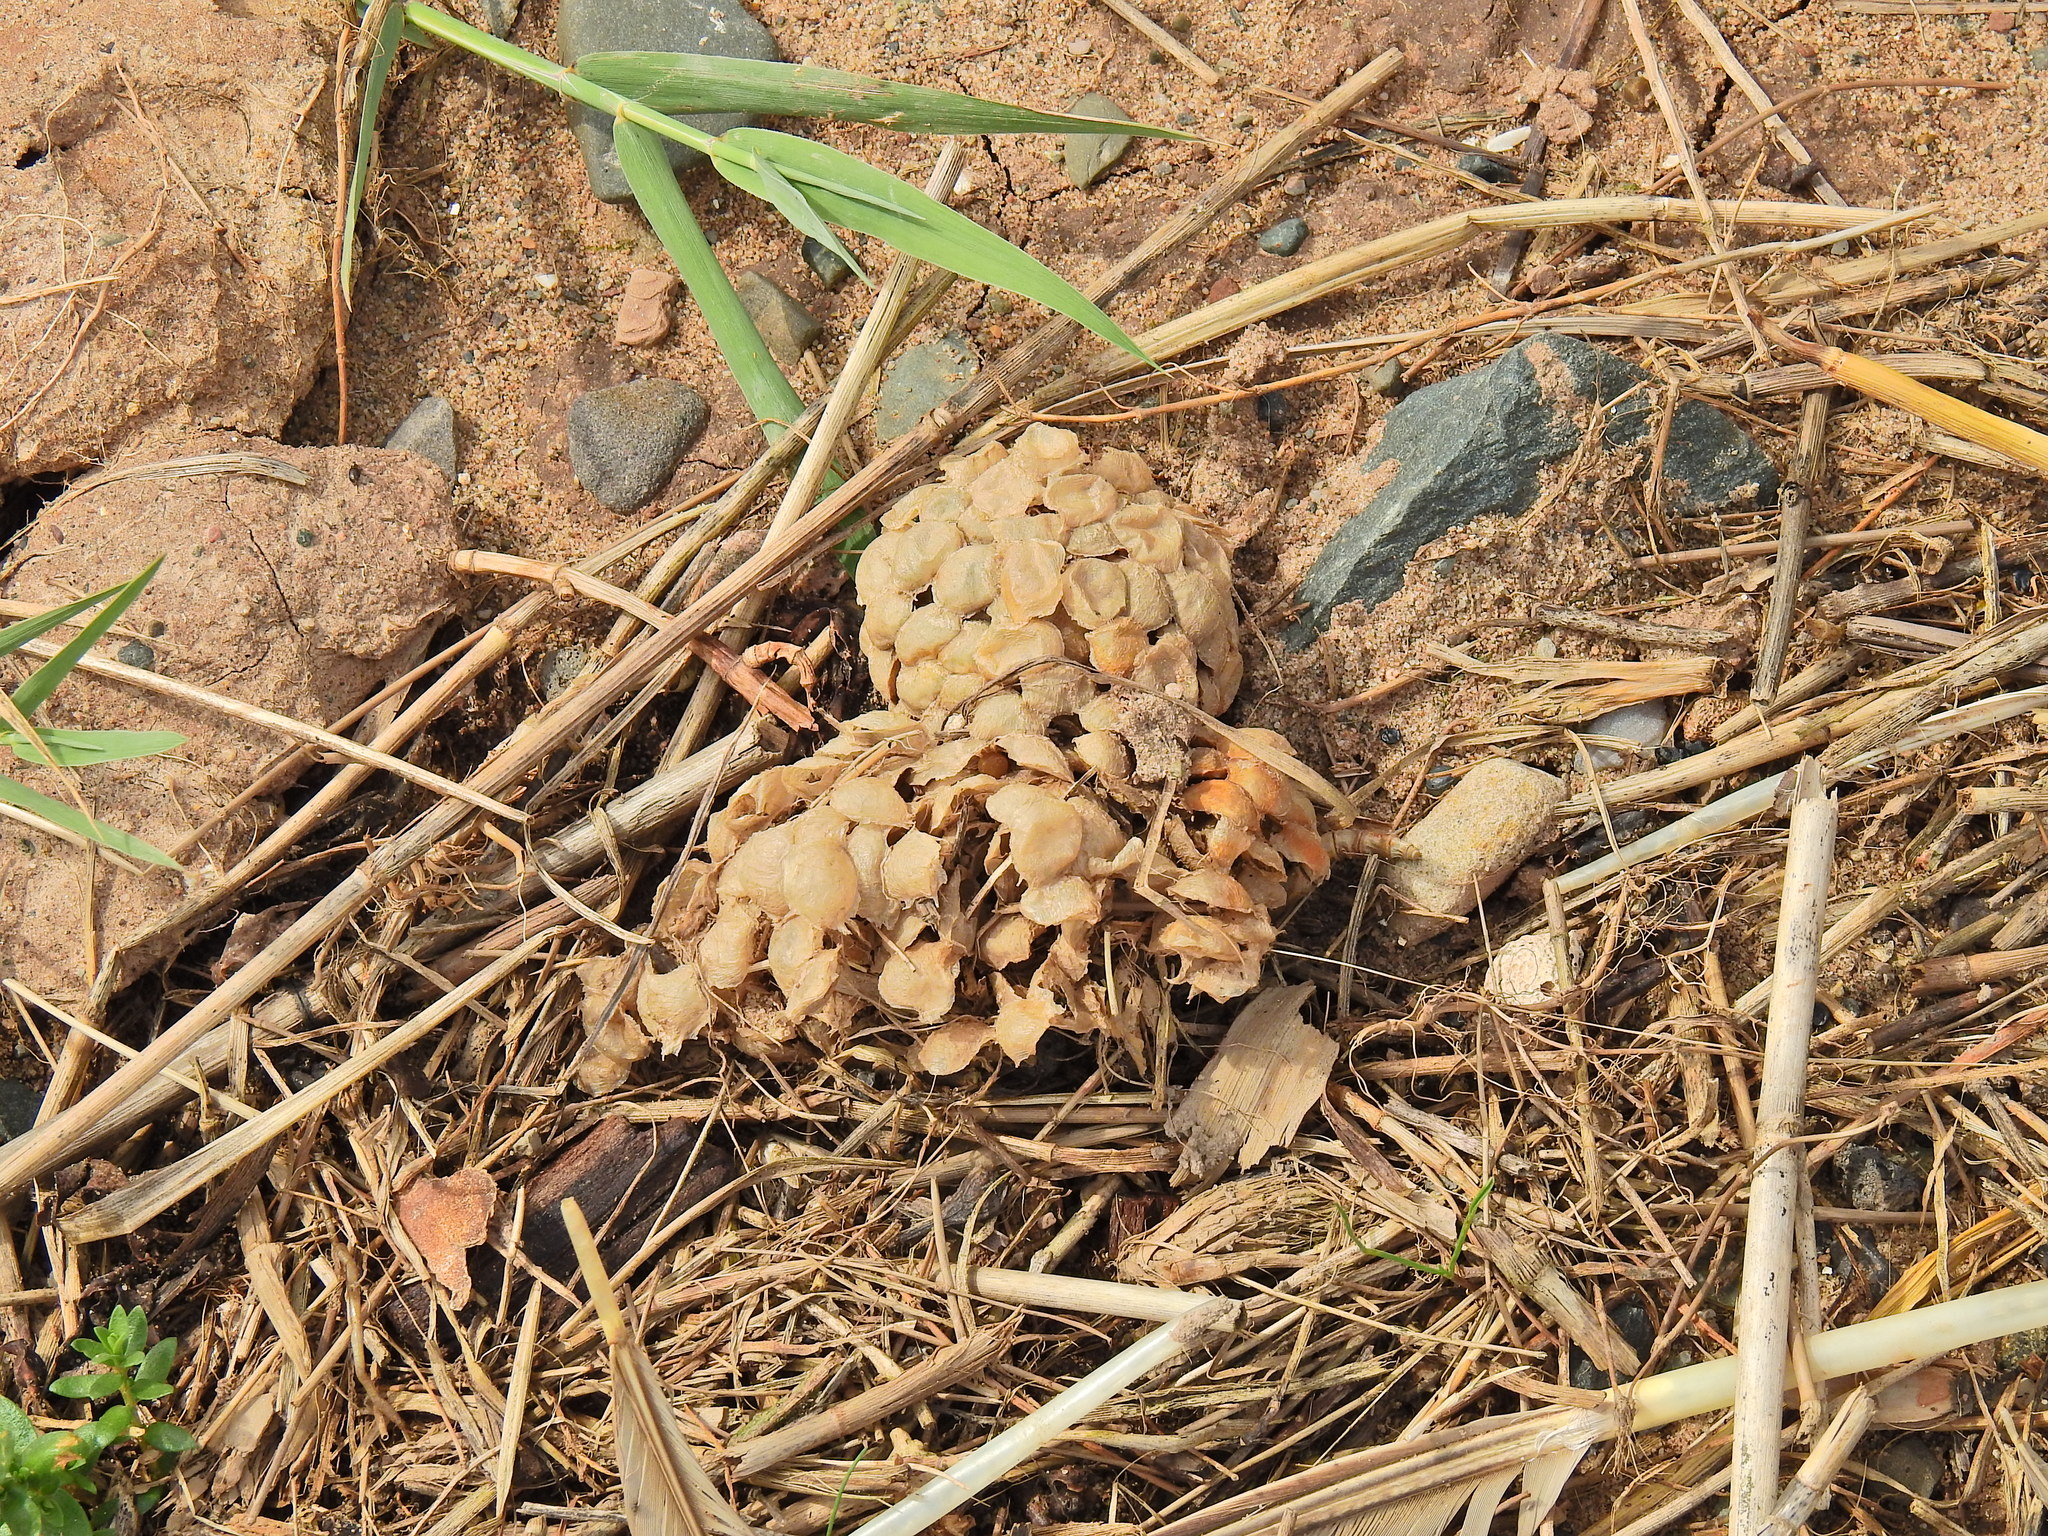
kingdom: Animalia
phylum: Mollusca
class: Gastropoda
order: Neogastropoda
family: Buccinidae
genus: Buccinum
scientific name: Buccinum undatum
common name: Common whelk
